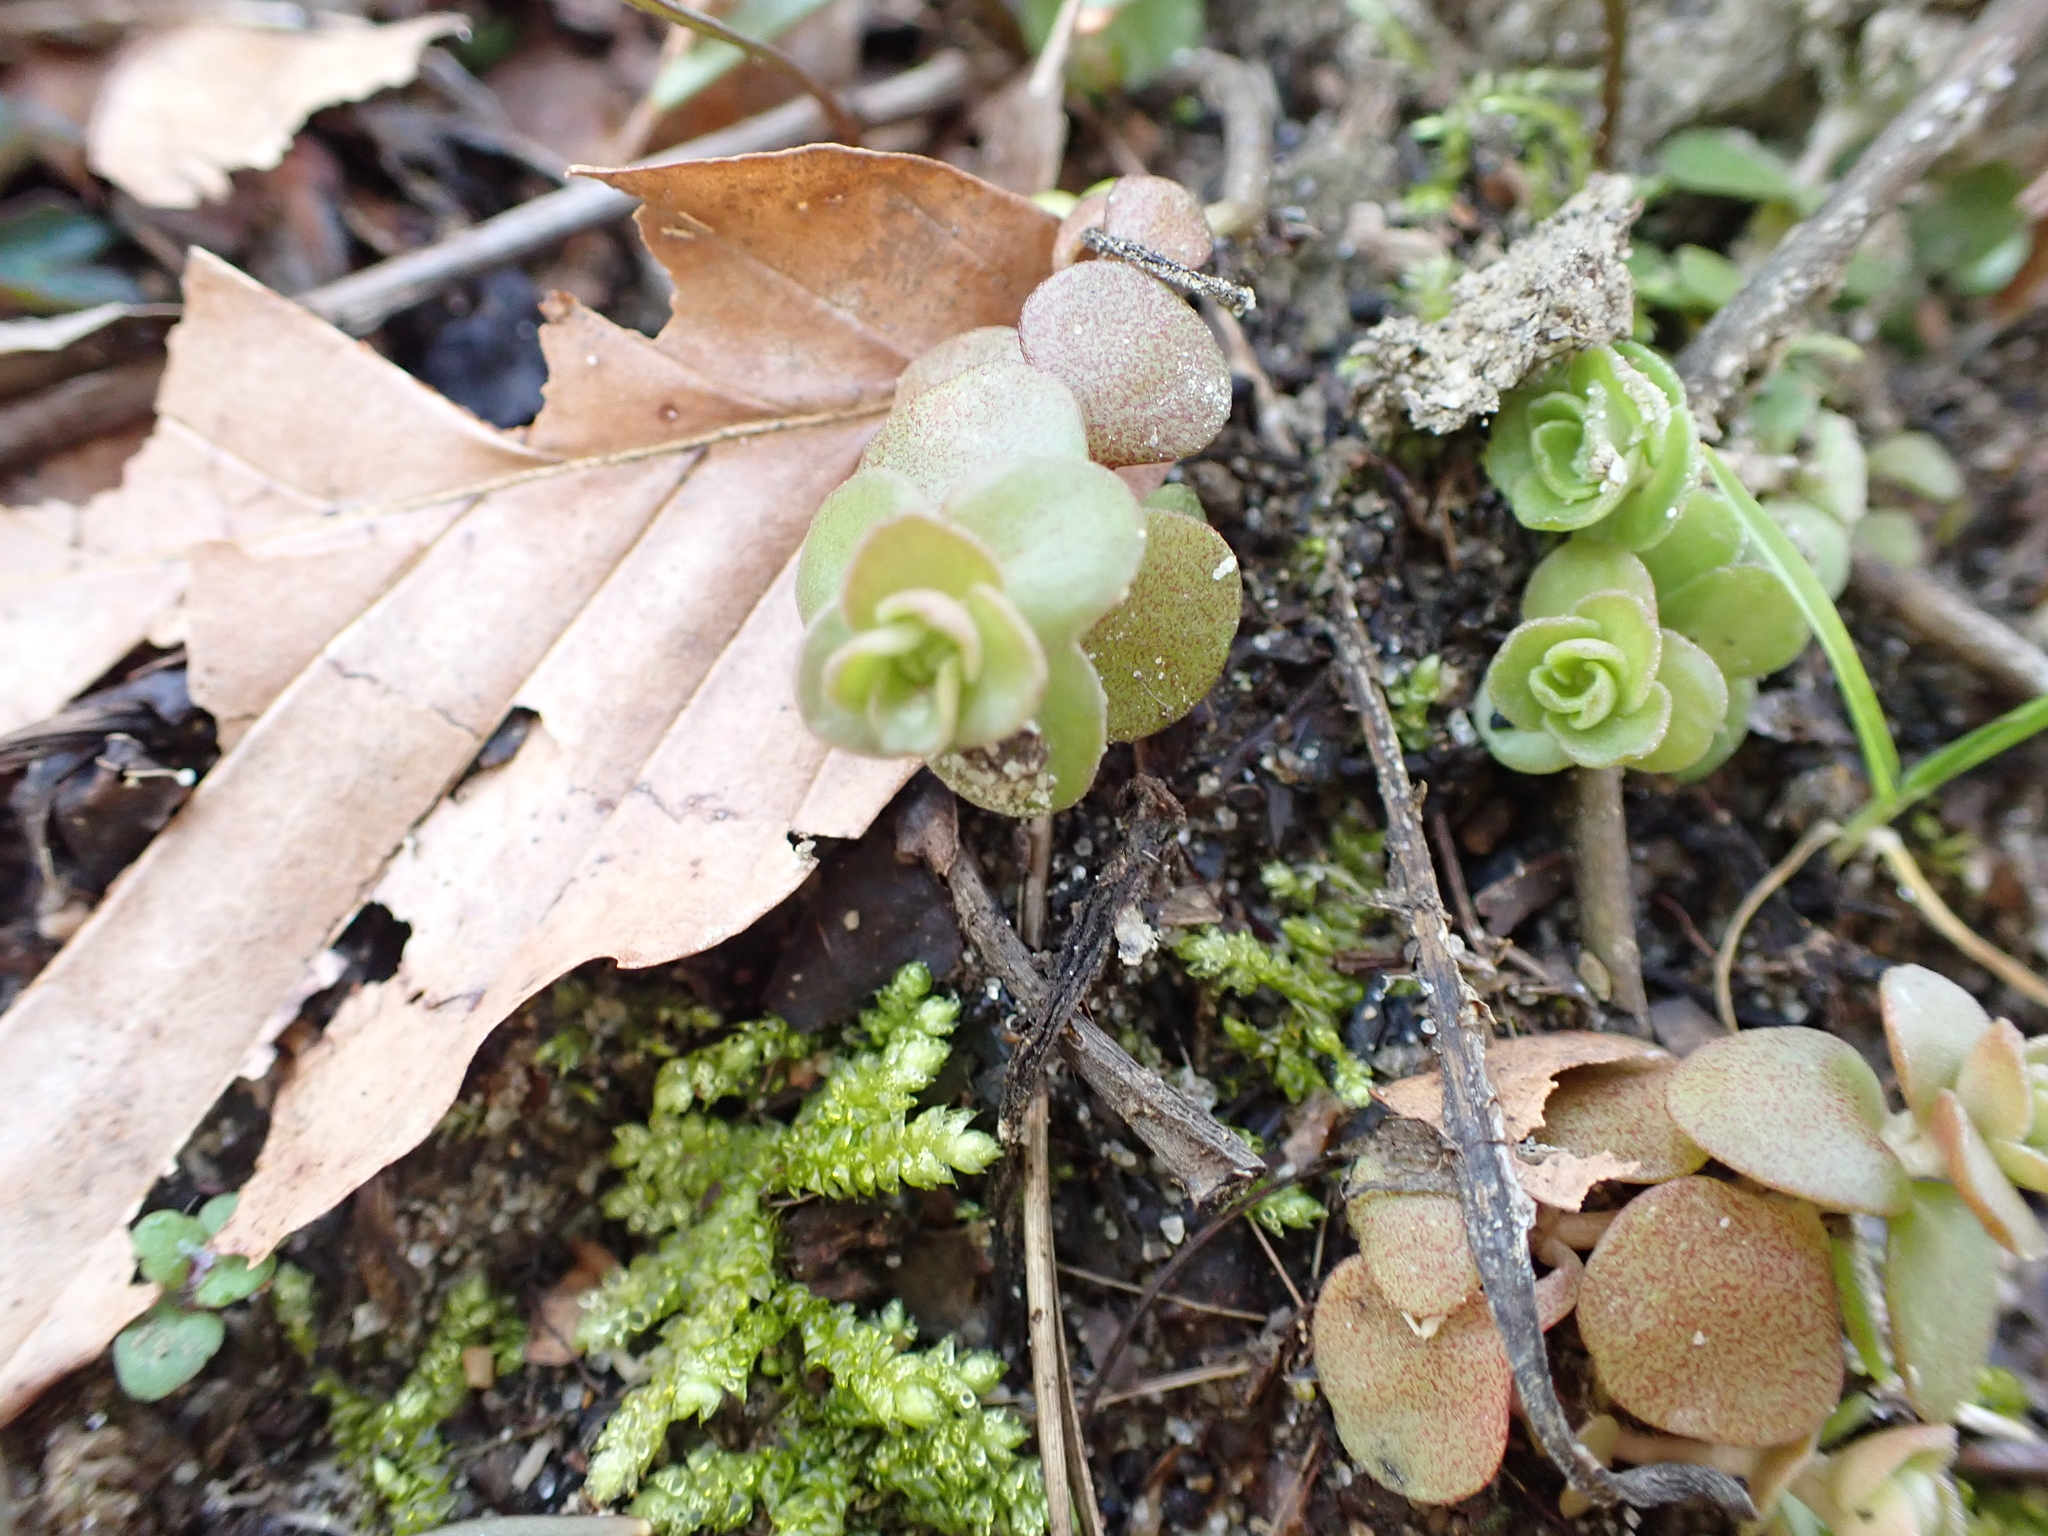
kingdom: Plantae
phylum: Tracheophyta
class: Magnoliopsida
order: Saxifragales
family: Crassulaceae
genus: Sedum
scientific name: Sedum ternatum
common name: Wild stonecrop
